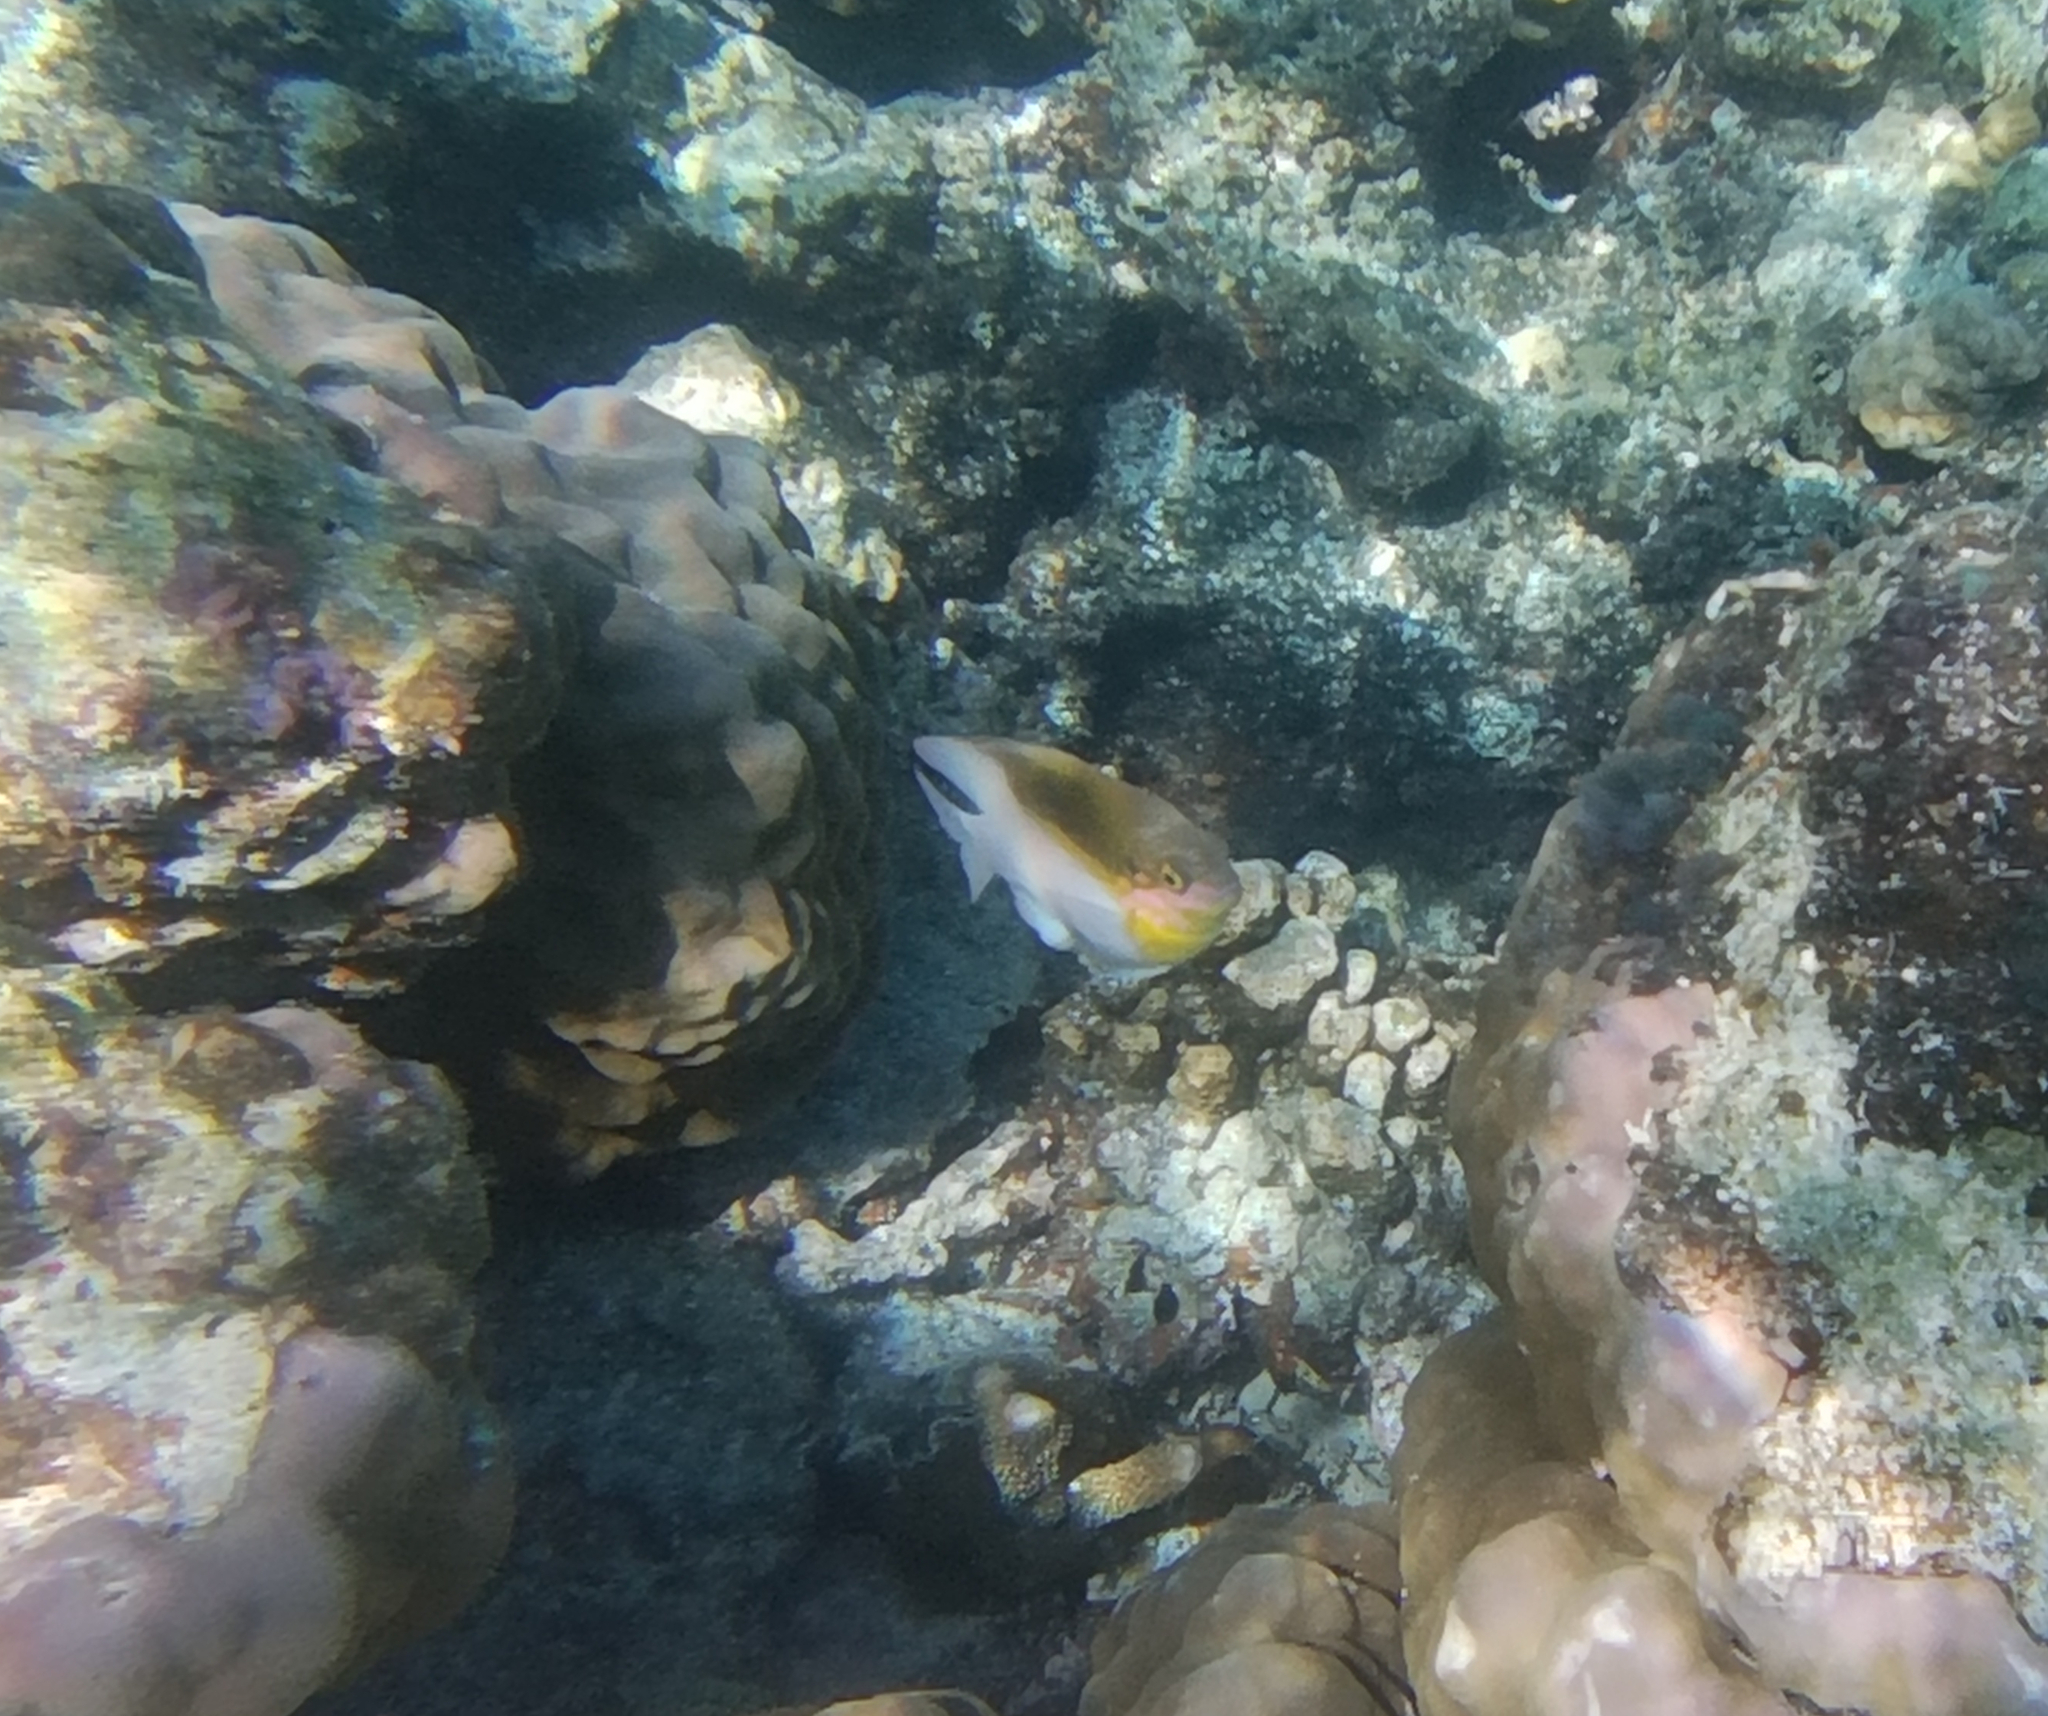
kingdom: Animalia
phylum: Chordata
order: Perciformes
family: Pomacentridae
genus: Dischistodus
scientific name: Dischistodus melanotus
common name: Black-vent damsel
